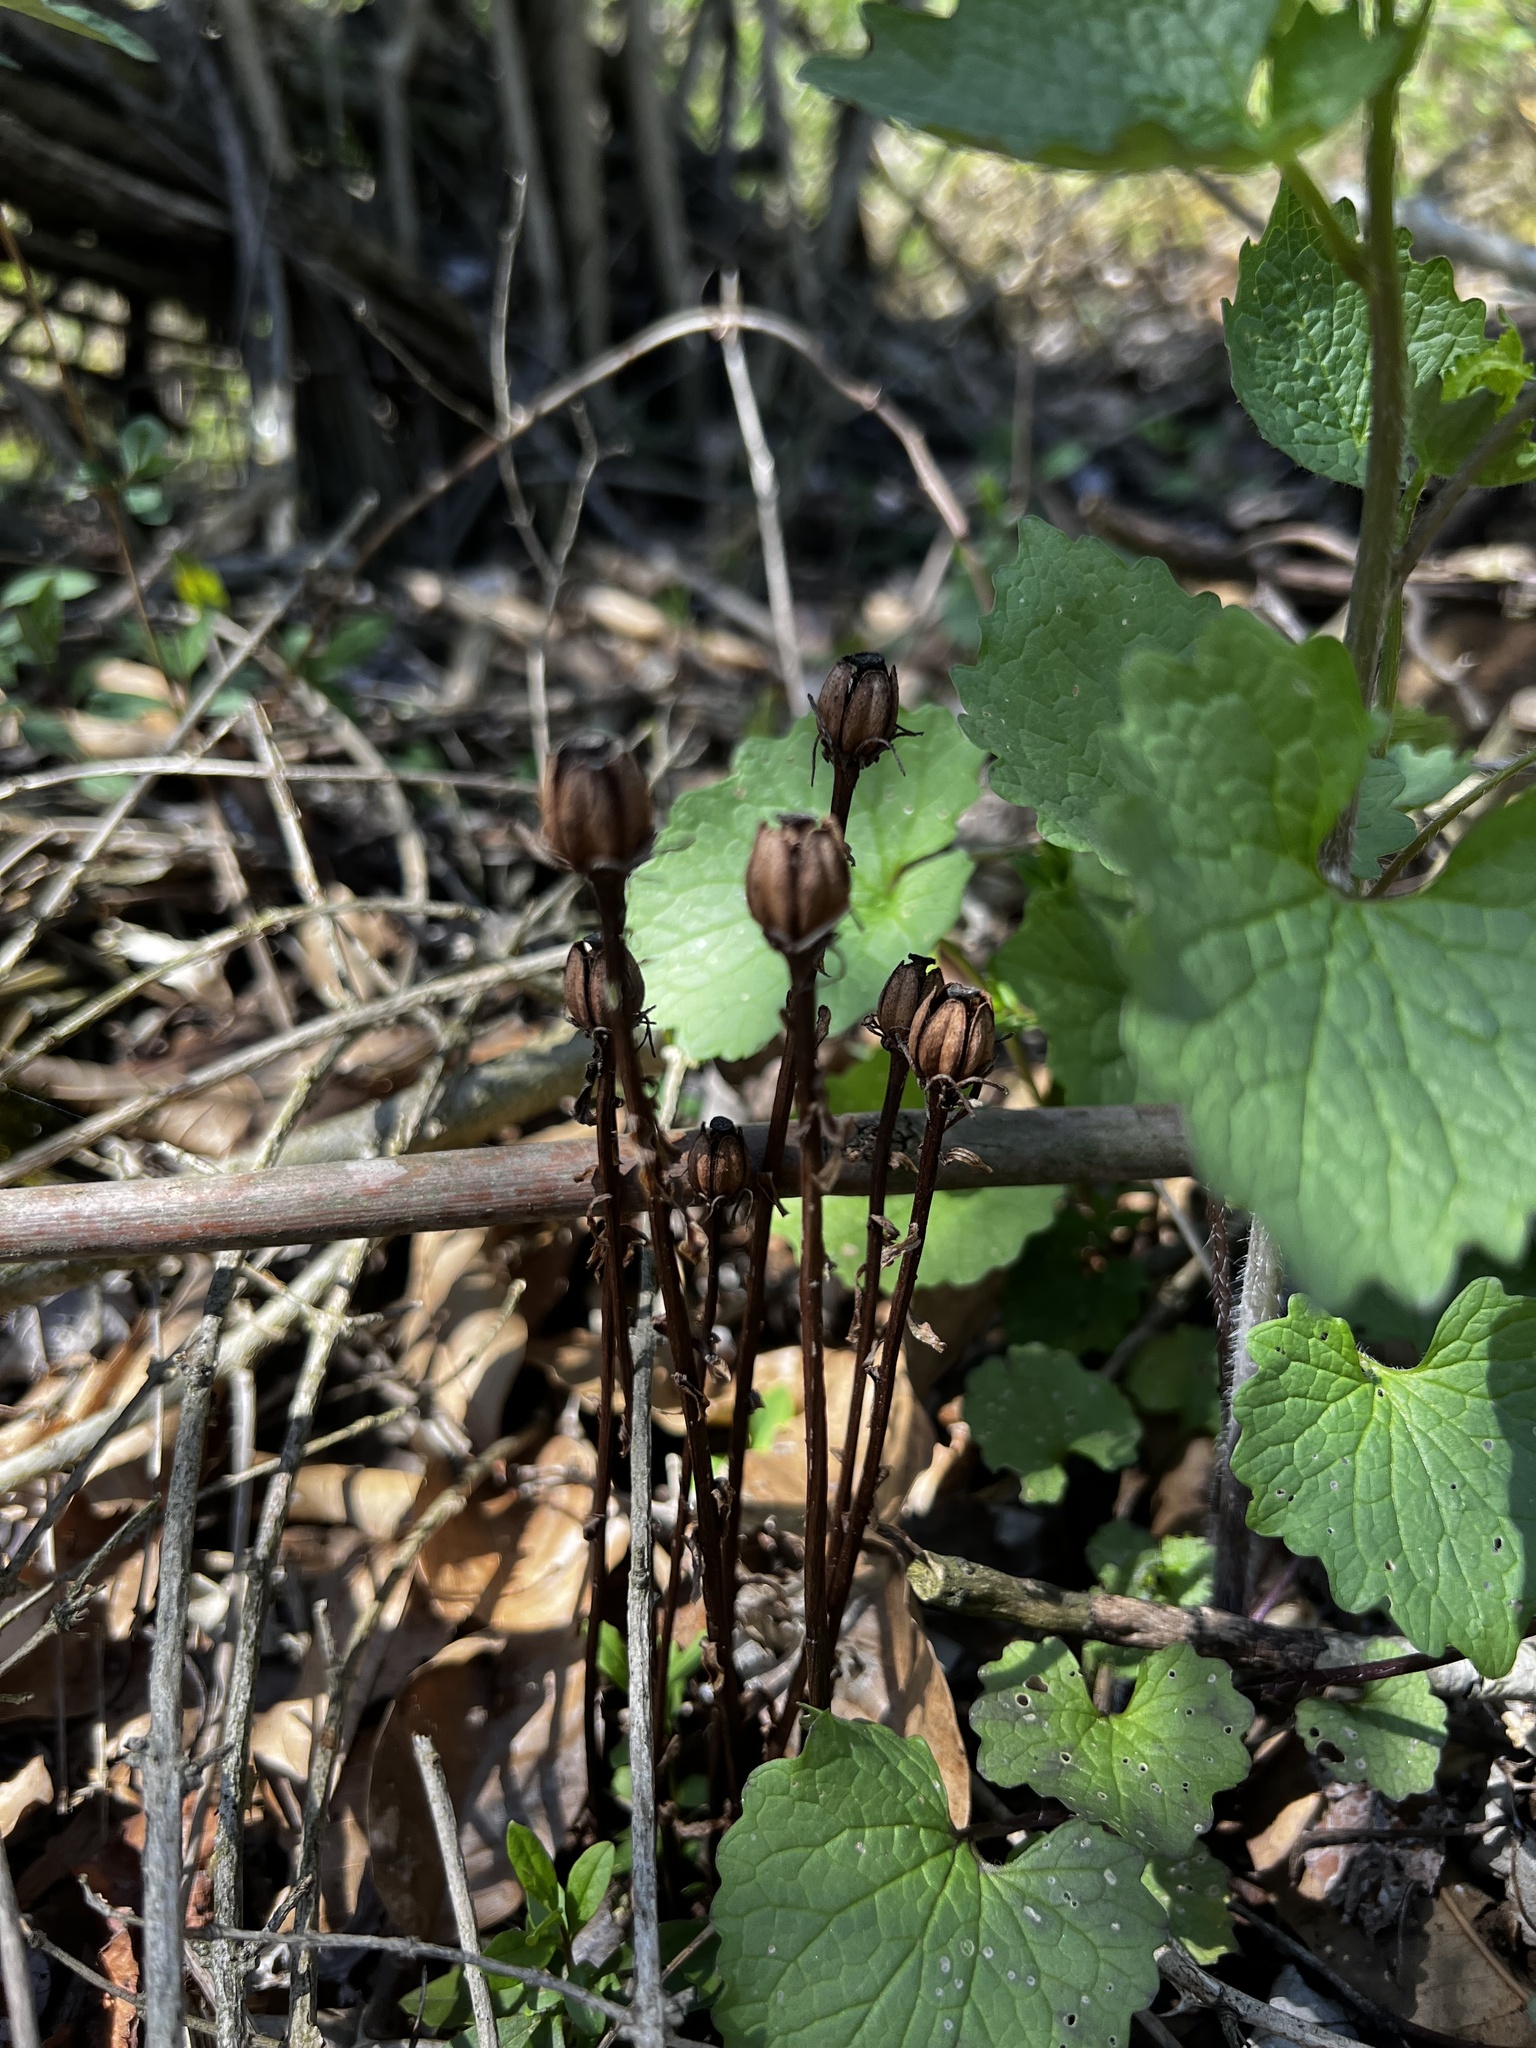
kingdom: Plantae
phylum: Tracheophyta
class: Magnoliopsida
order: Ericales
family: Ericaceae
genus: Monotropa
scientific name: Monotropa uniflora
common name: Convulsion root
